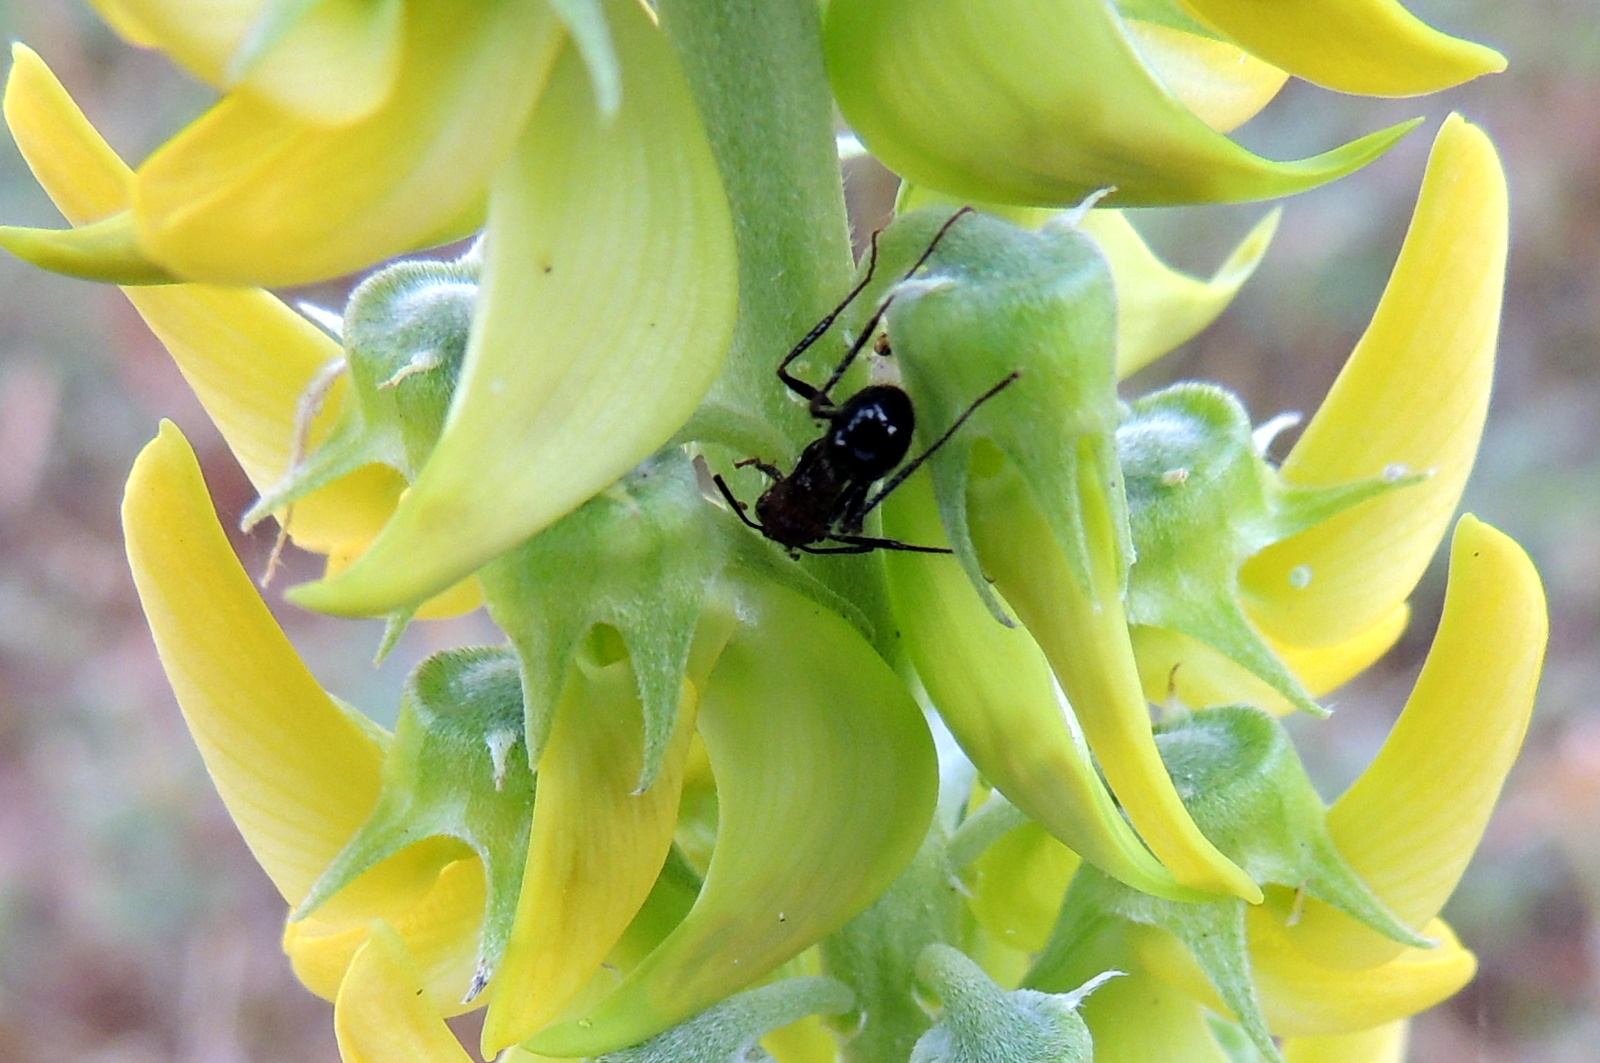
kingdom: Animalia
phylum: Arthropoda
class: Insecta
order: Hymenoptera
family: Formicidae
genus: Myrmicaria
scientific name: Myrmicaria
